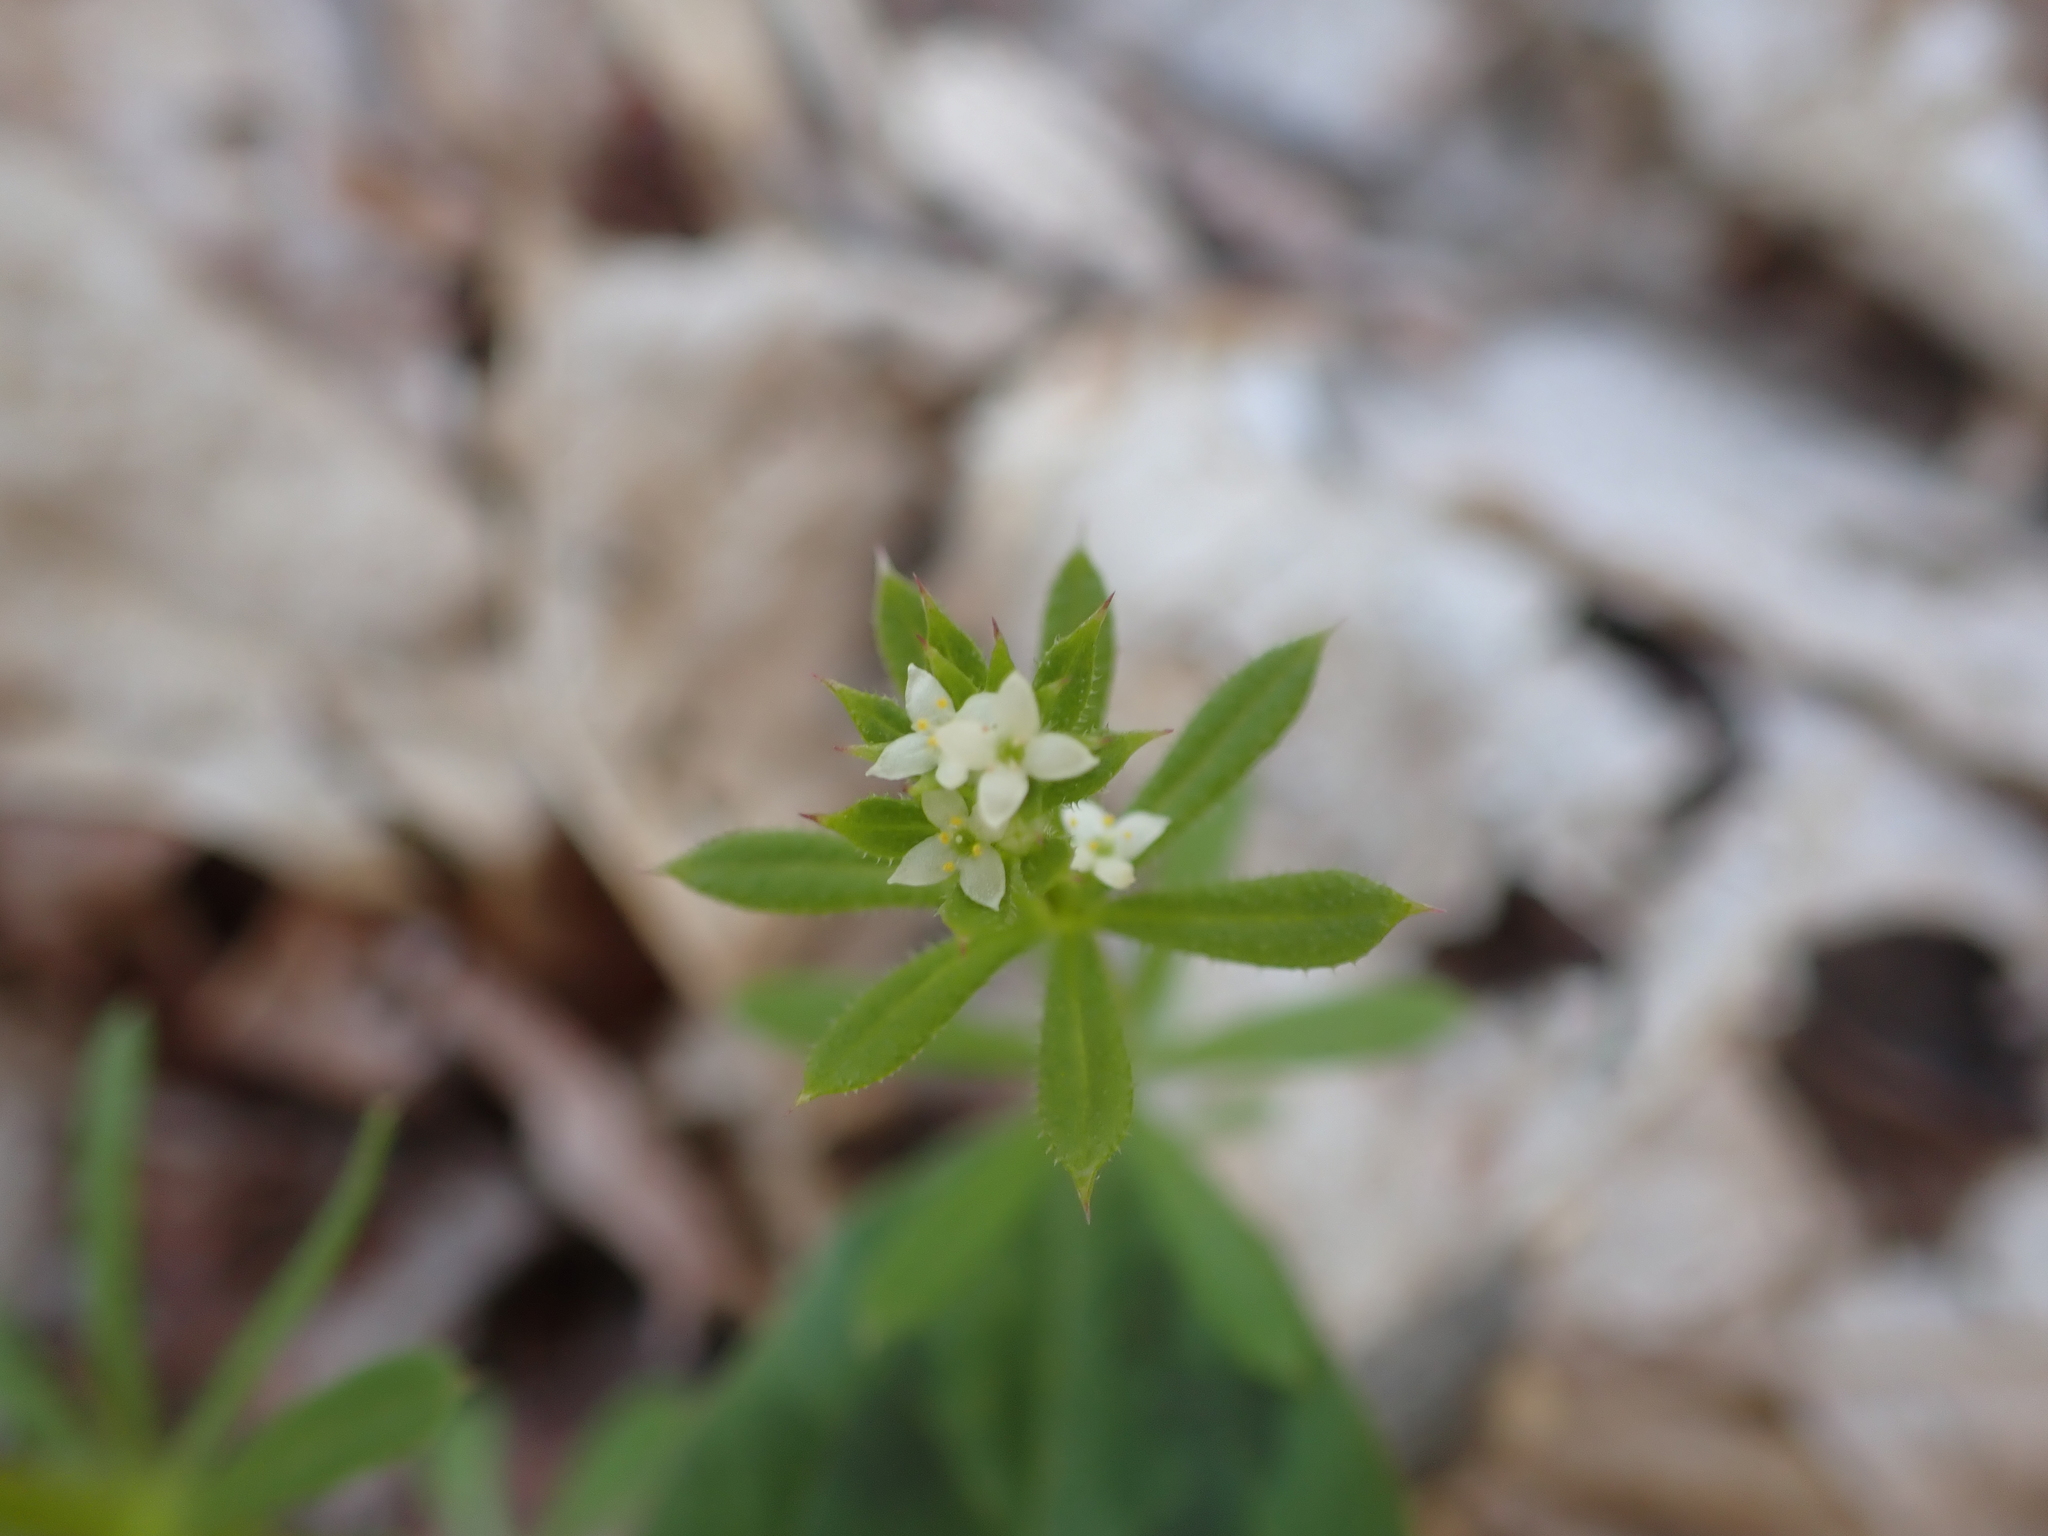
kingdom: Plantae
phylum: Tracheophyta
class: Magnoliopsida
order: Gentianales
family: Rubiaceae
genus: Galium
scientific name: Galium aparine
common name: Cleavers
